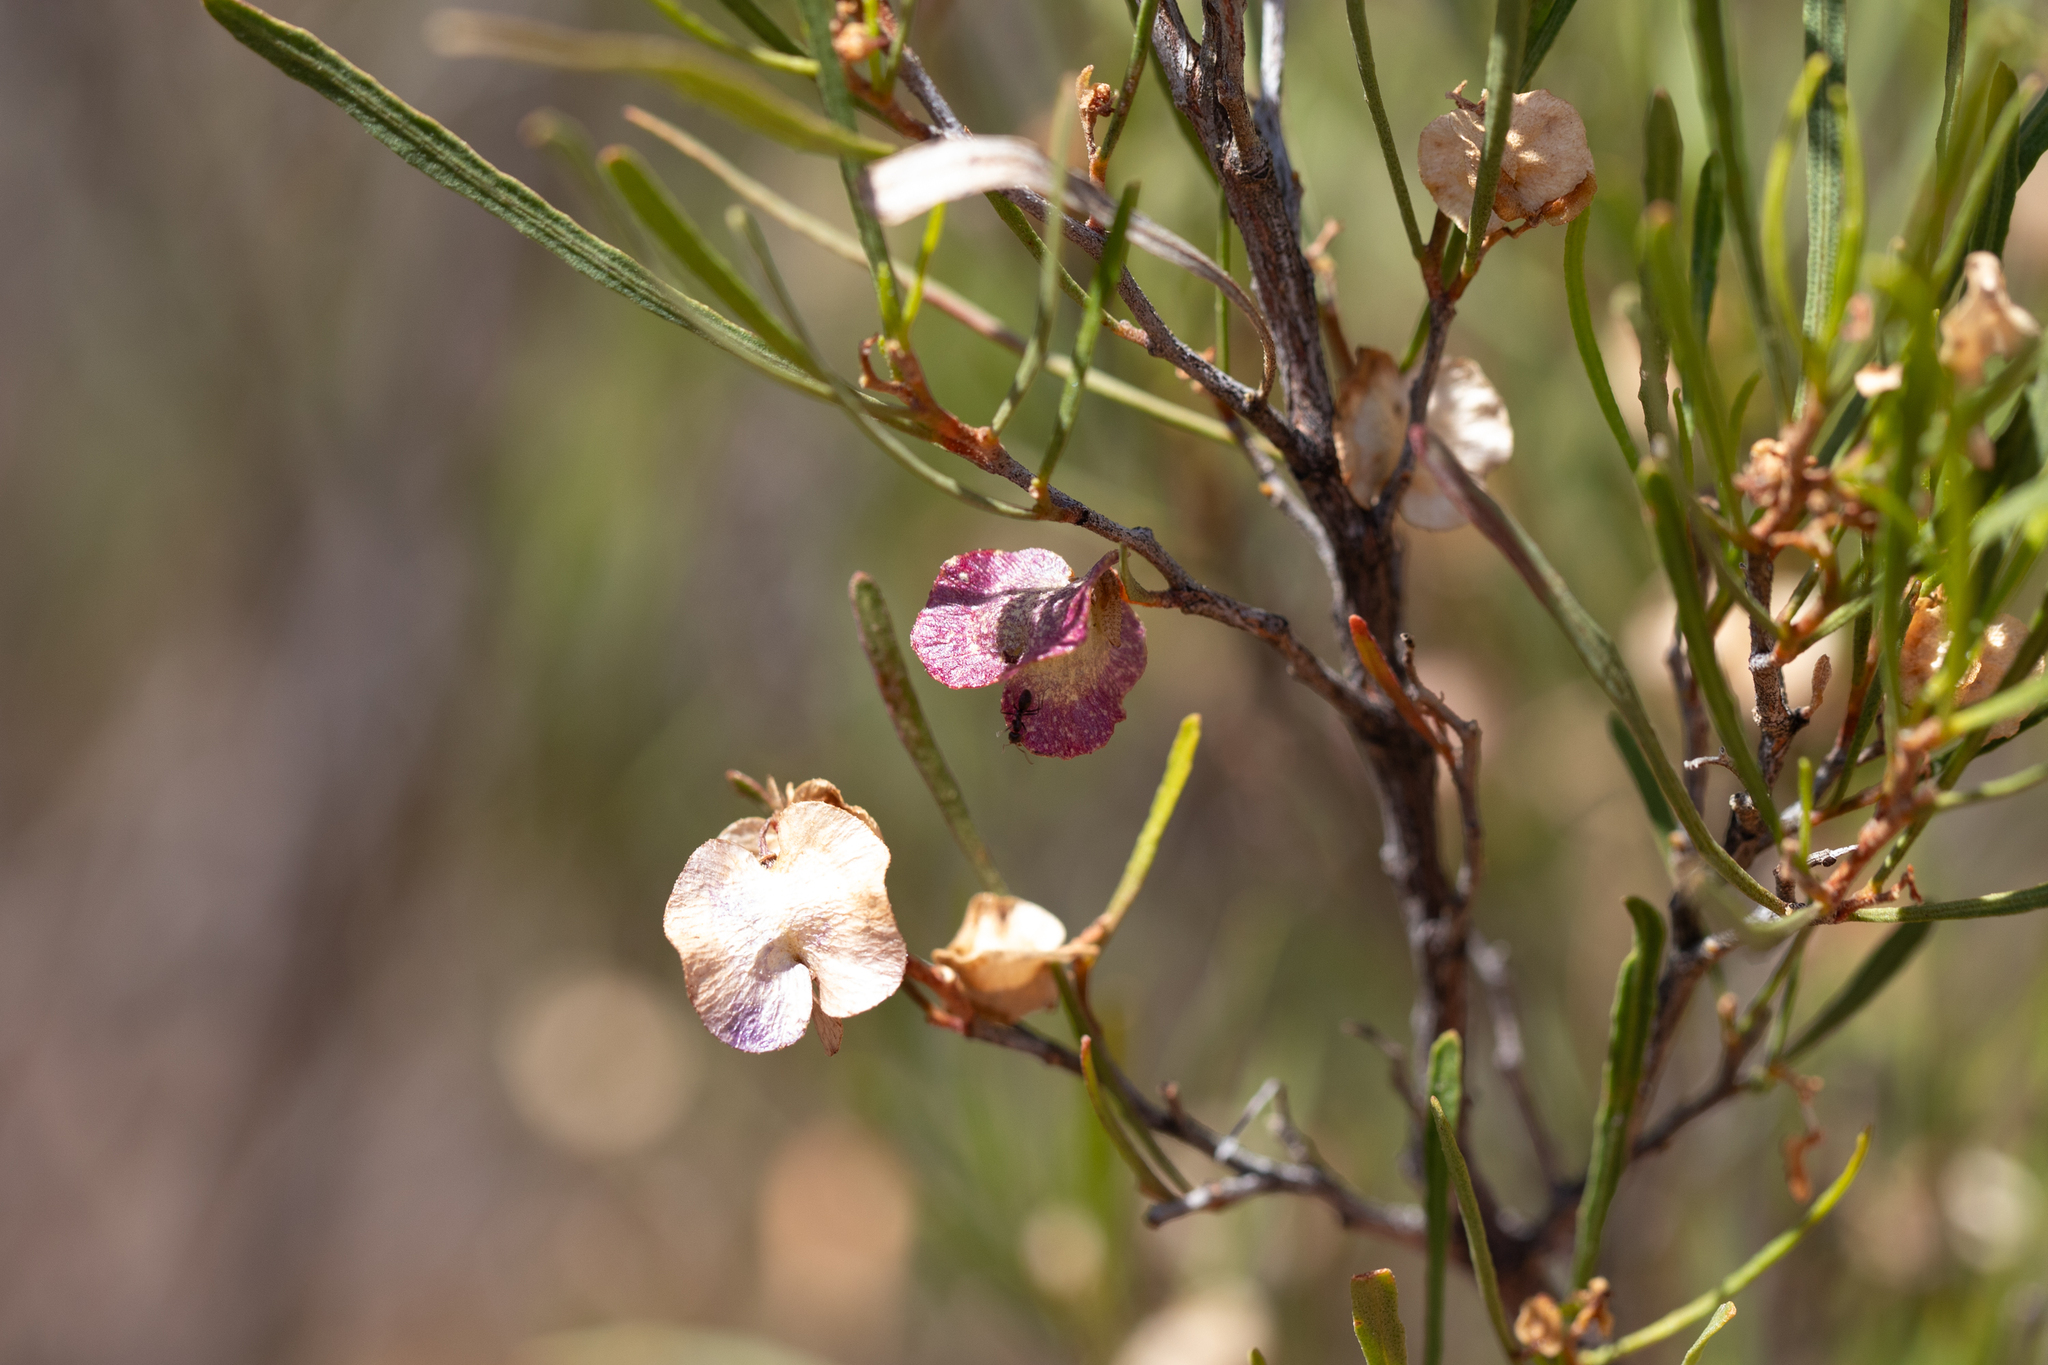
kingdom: Plantae
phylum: Tracheophyta
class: Magnoliopsida
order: Sapindales
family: Sapindaceae
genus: Dodonaea
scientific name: Dodonaea viscosa
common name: Hopbush
